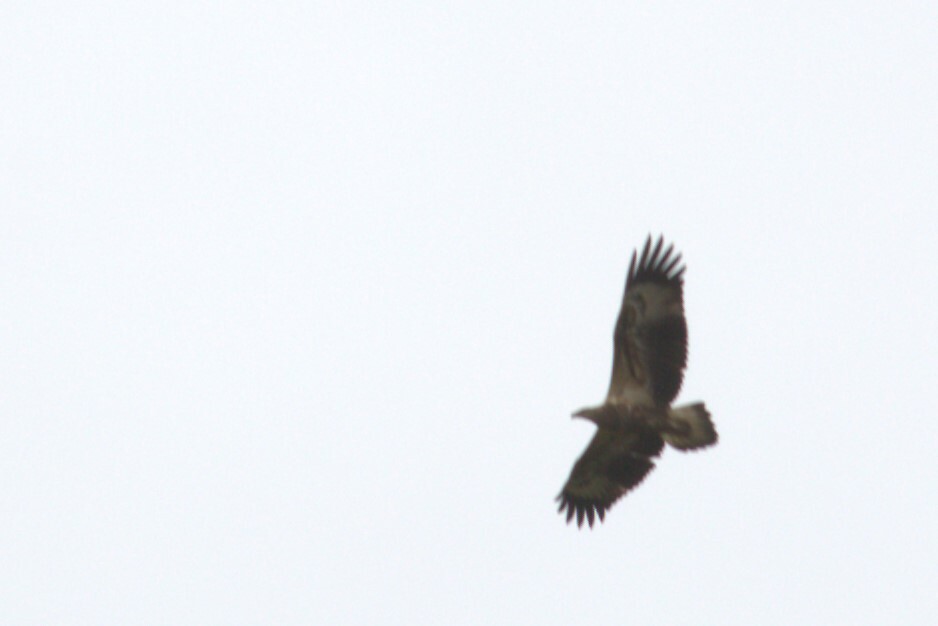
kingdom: Animalia
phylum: Chordata
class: Aves
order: Accipitriformes
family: Accipitridae
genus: Haliaeetus
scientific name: Haliaeetus leucogaster
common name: White-bellied sea eagle
